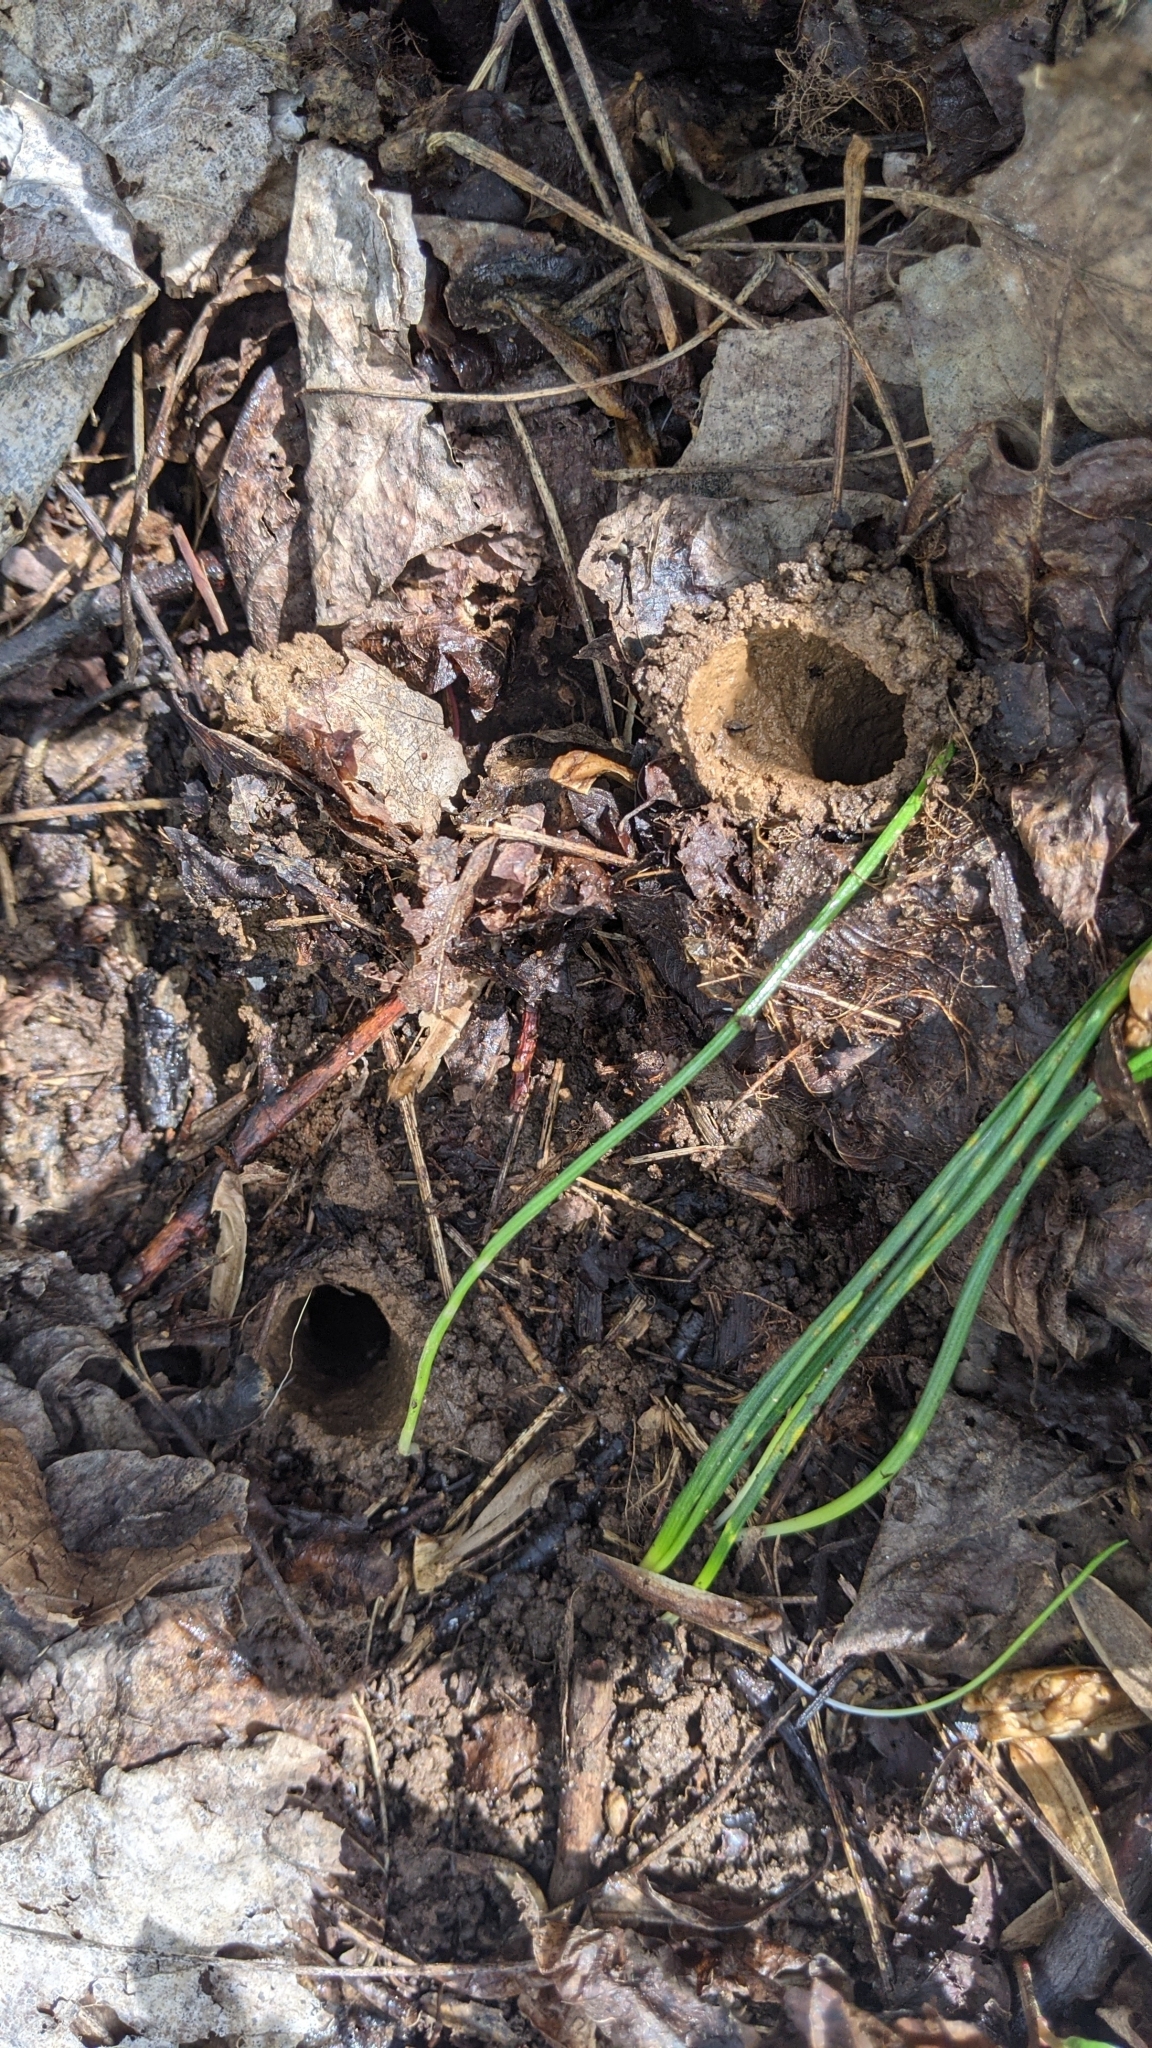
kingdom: Animalia
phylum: Arthropoda
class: Insecta
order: Hemiptera
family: Cicadidae
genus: Magicicada
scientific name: Magicicada
